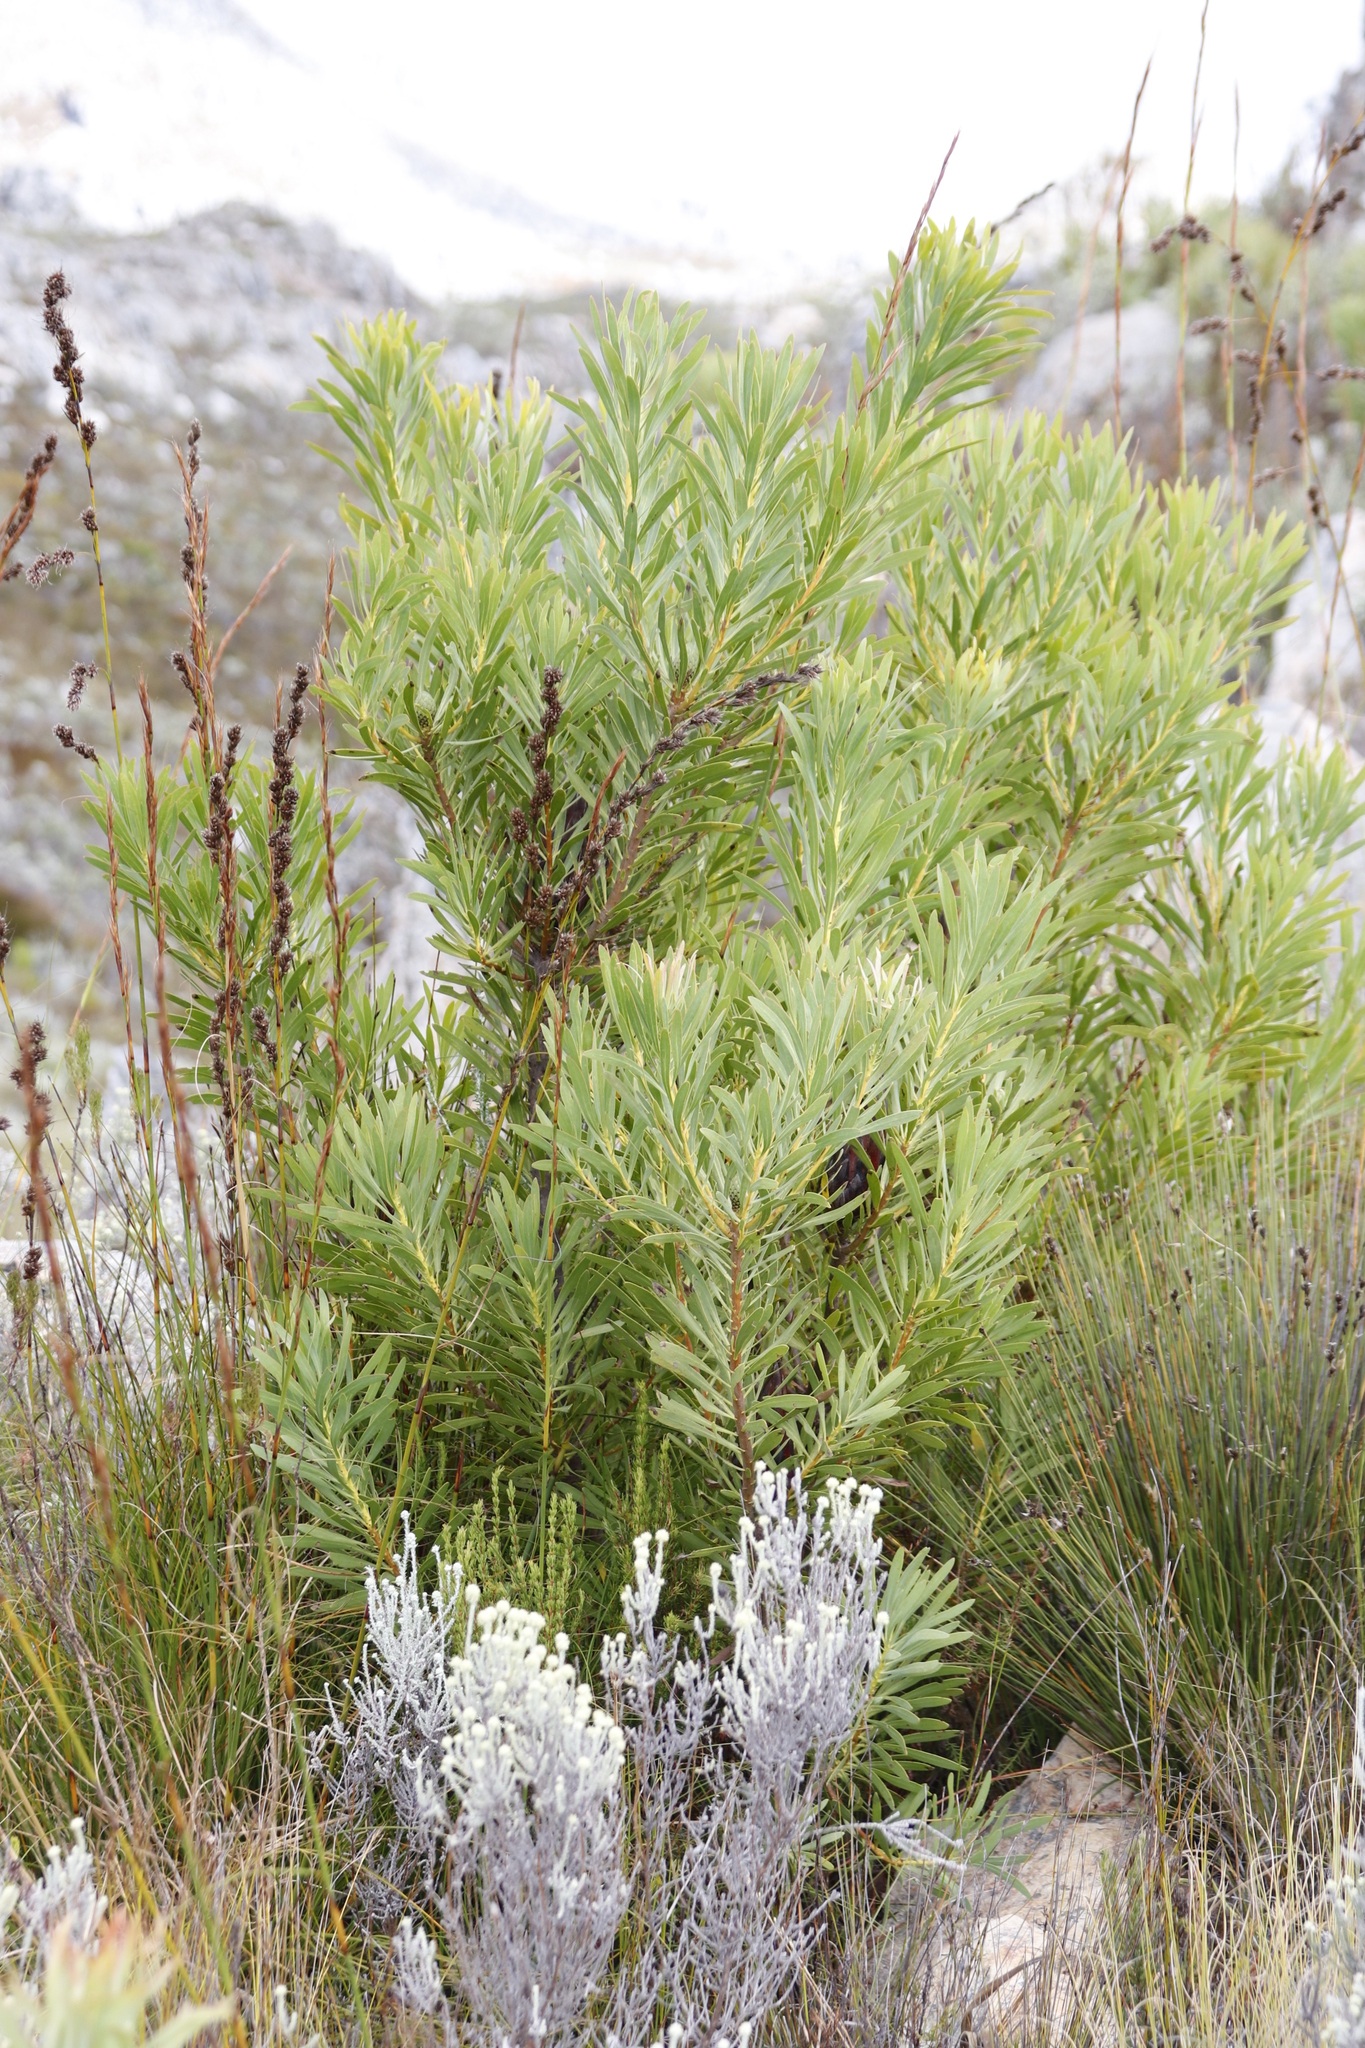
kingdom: Plantae
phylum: Tracheophyta
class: Magnoliopsida
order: Proteales
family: Proteaceae
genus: Protea
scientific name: Protea repens
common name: Sugarbush
